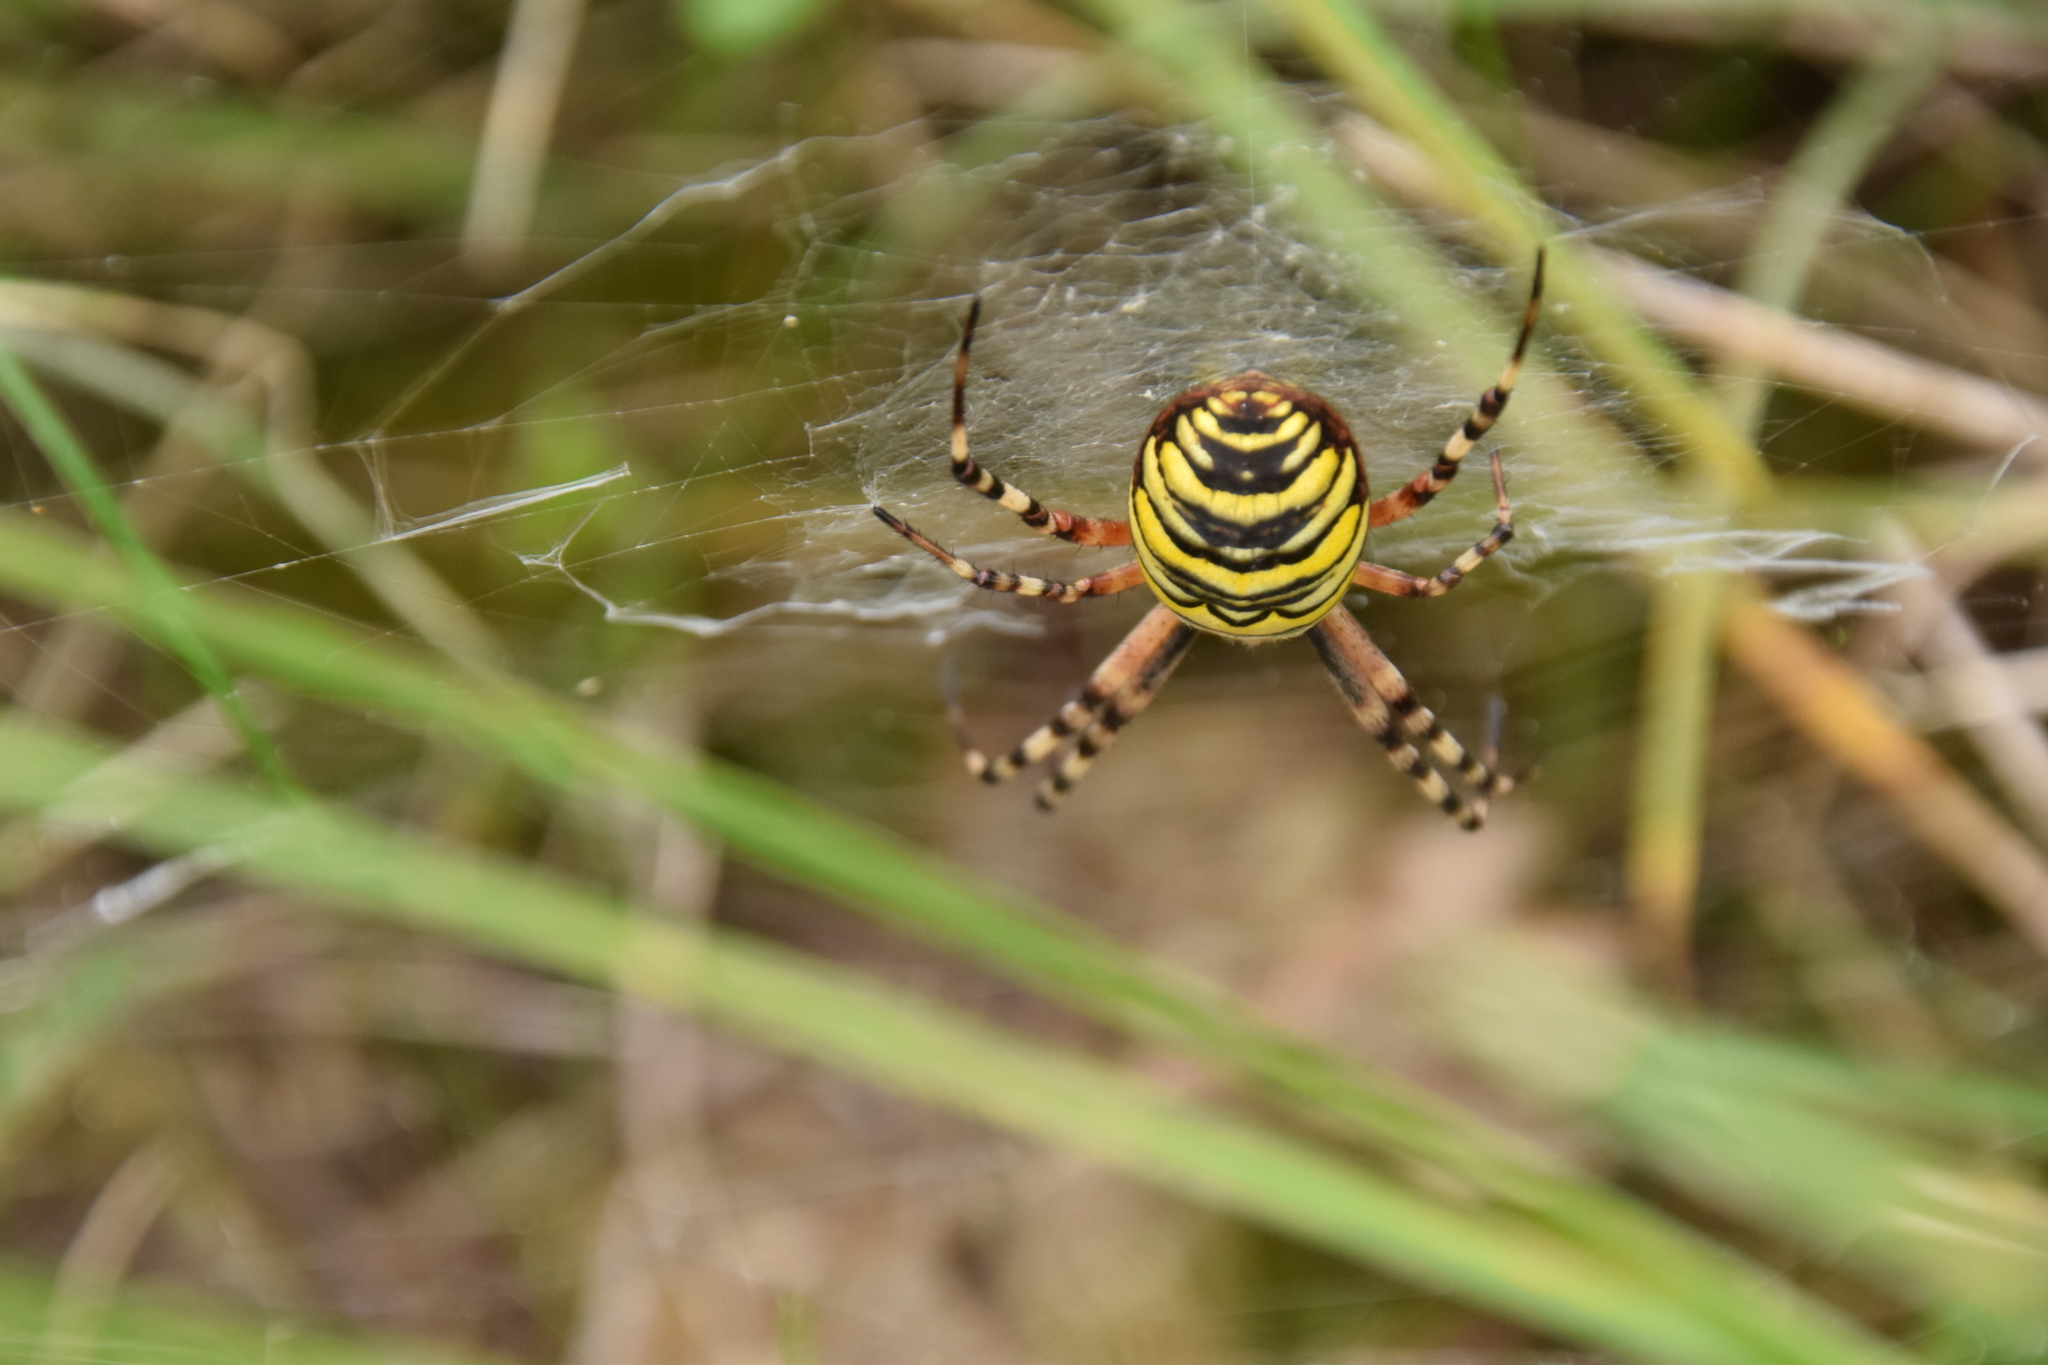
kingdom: Animalia
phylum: Arthropoda
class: Arachnida
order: Araneae
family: Araneidae
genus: Argiope
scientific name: Argiope bruennichi
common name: Wasp spider
